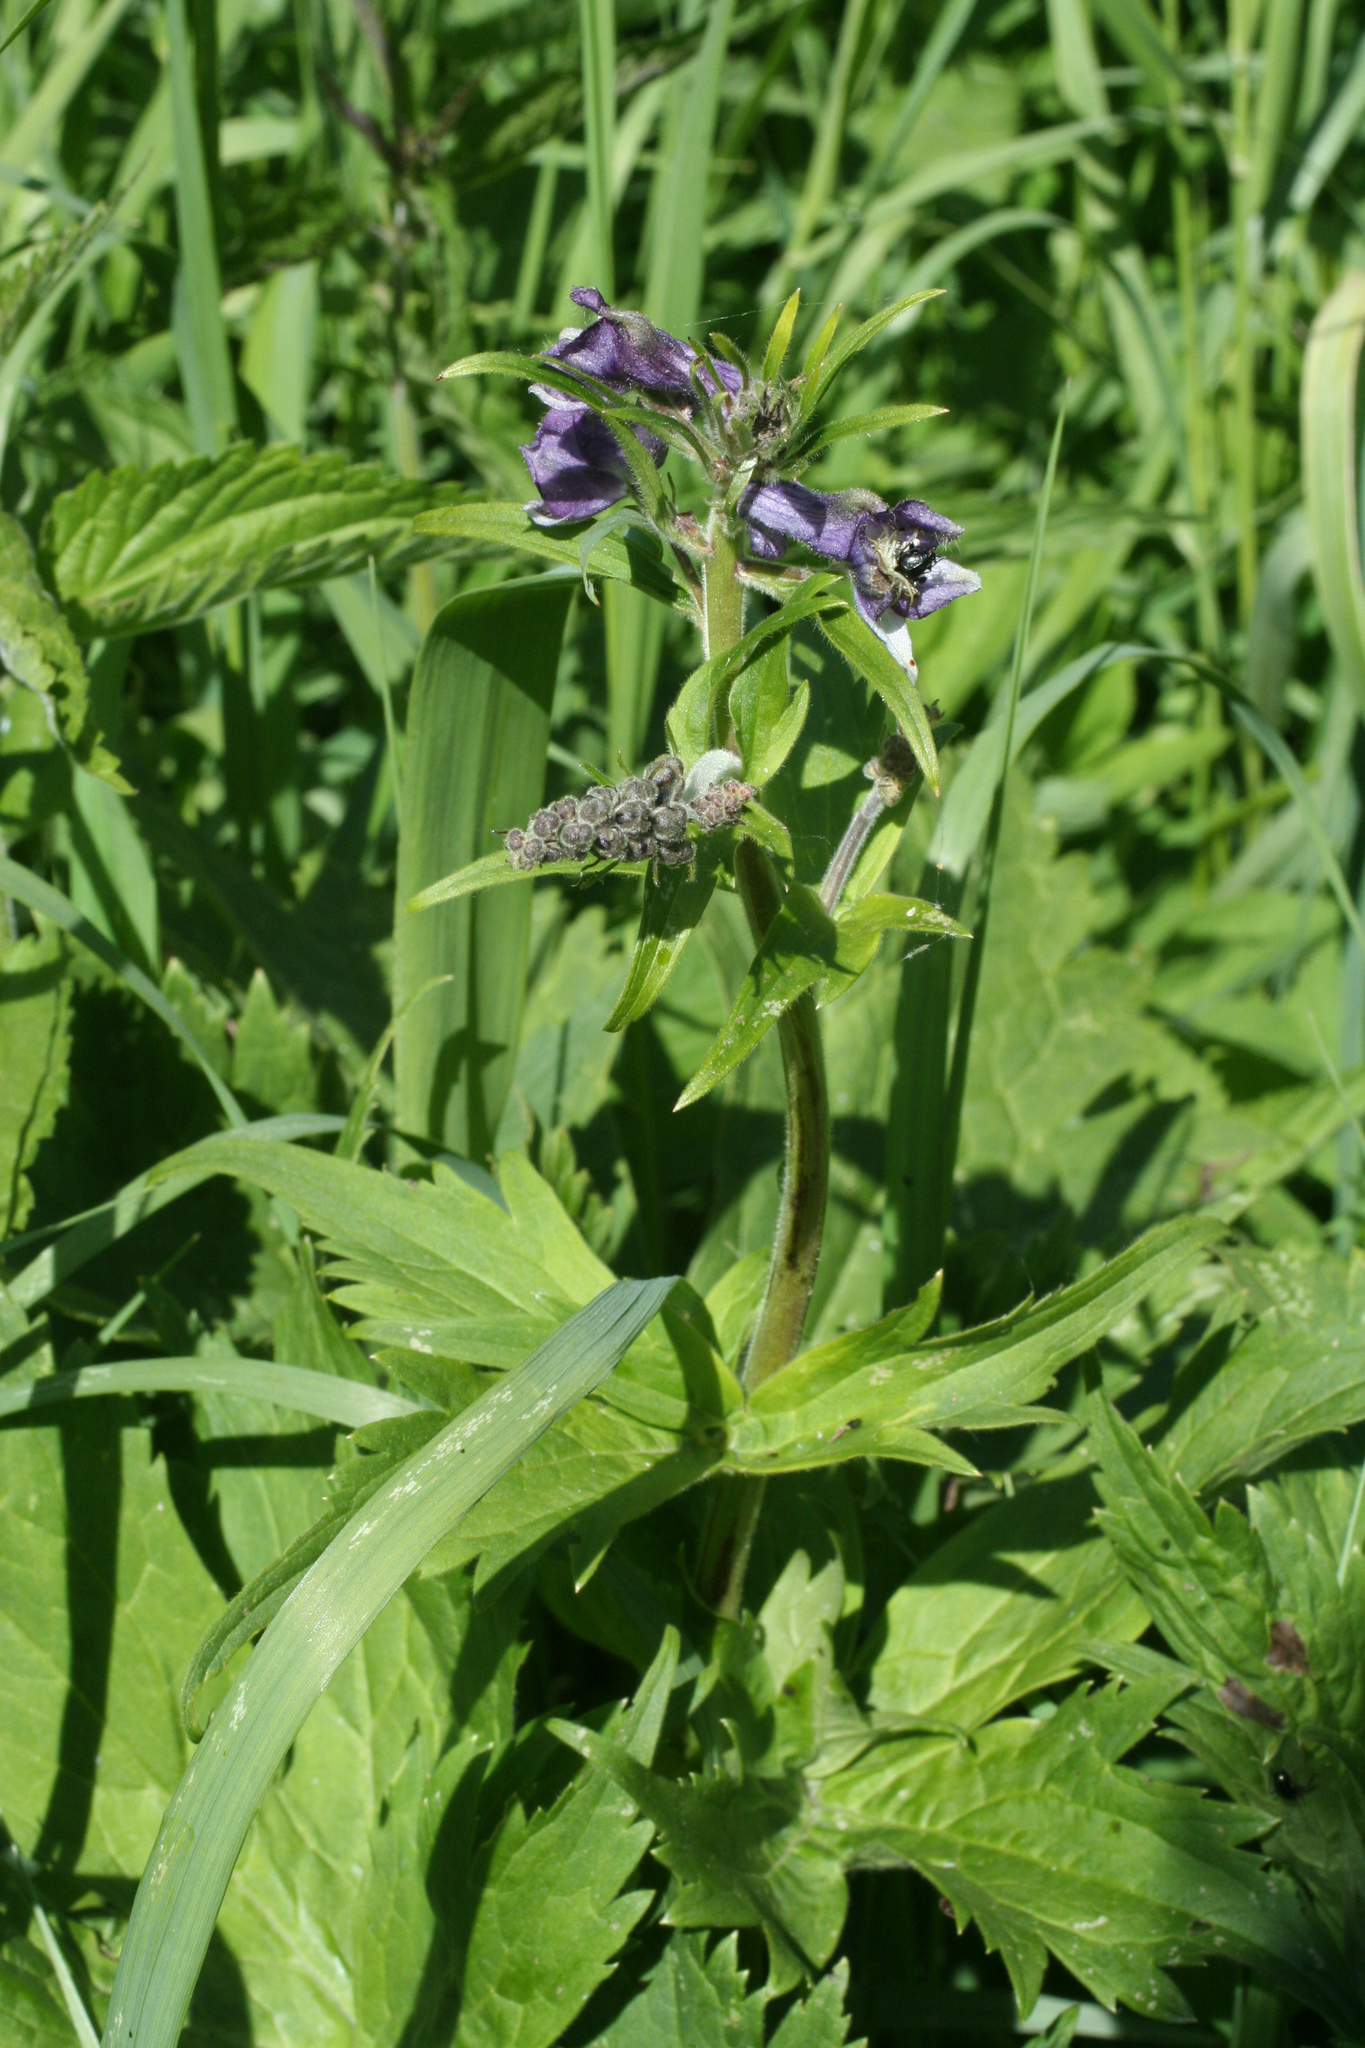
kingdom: Plantae
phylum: Tracheophyta
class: Magnoliopsida
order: Ranunculales
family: Ranunculaceae
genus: Delphinium
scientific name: Delphinium elatum
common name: Candle larkspur
